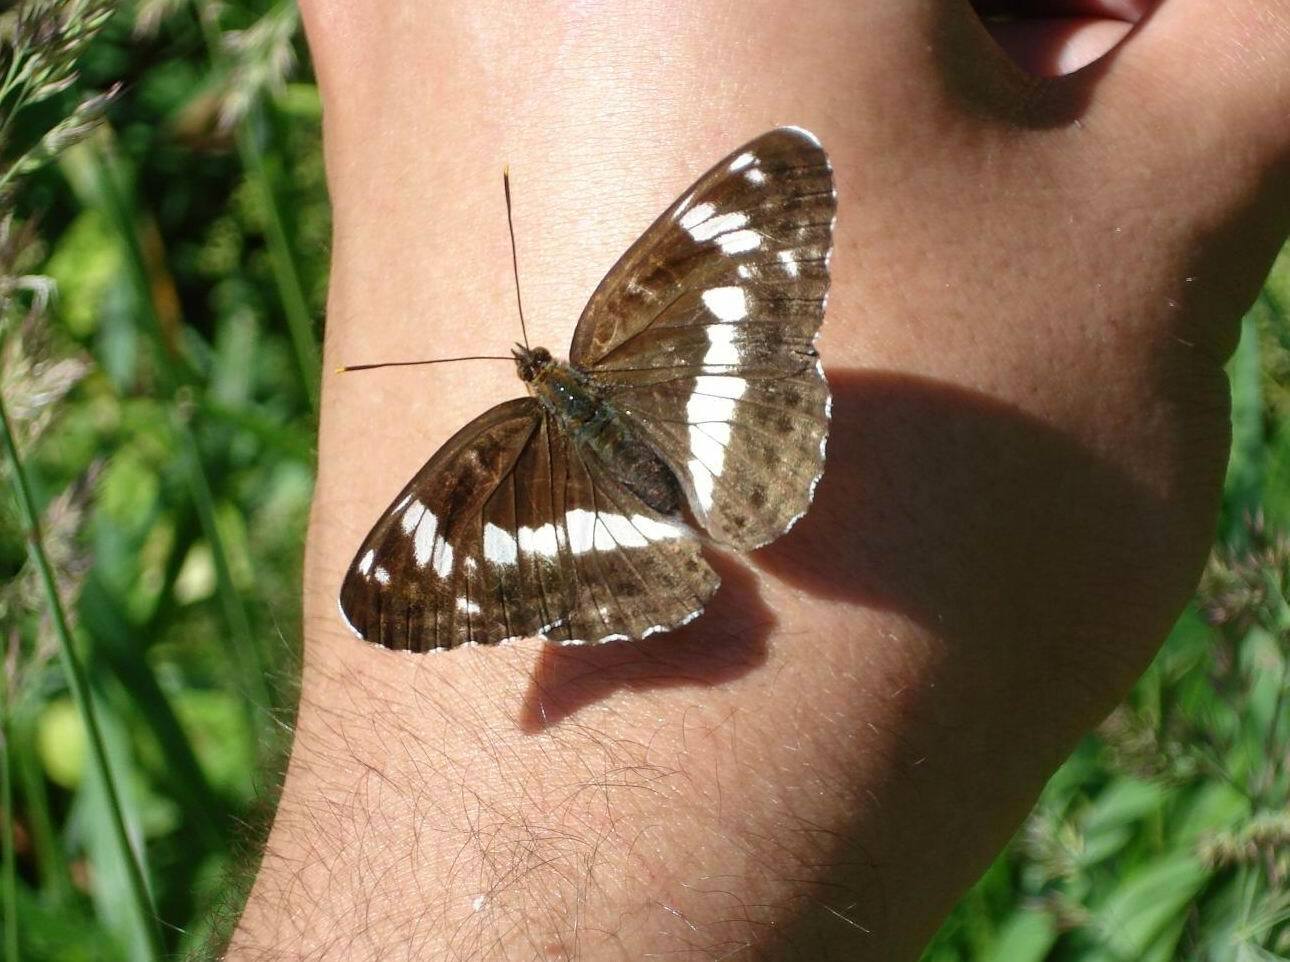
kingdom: Animalia
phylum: Arthropoda
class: Insecta
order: Lepidoptera
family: Nymphalidae
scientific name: Nymphalidae
